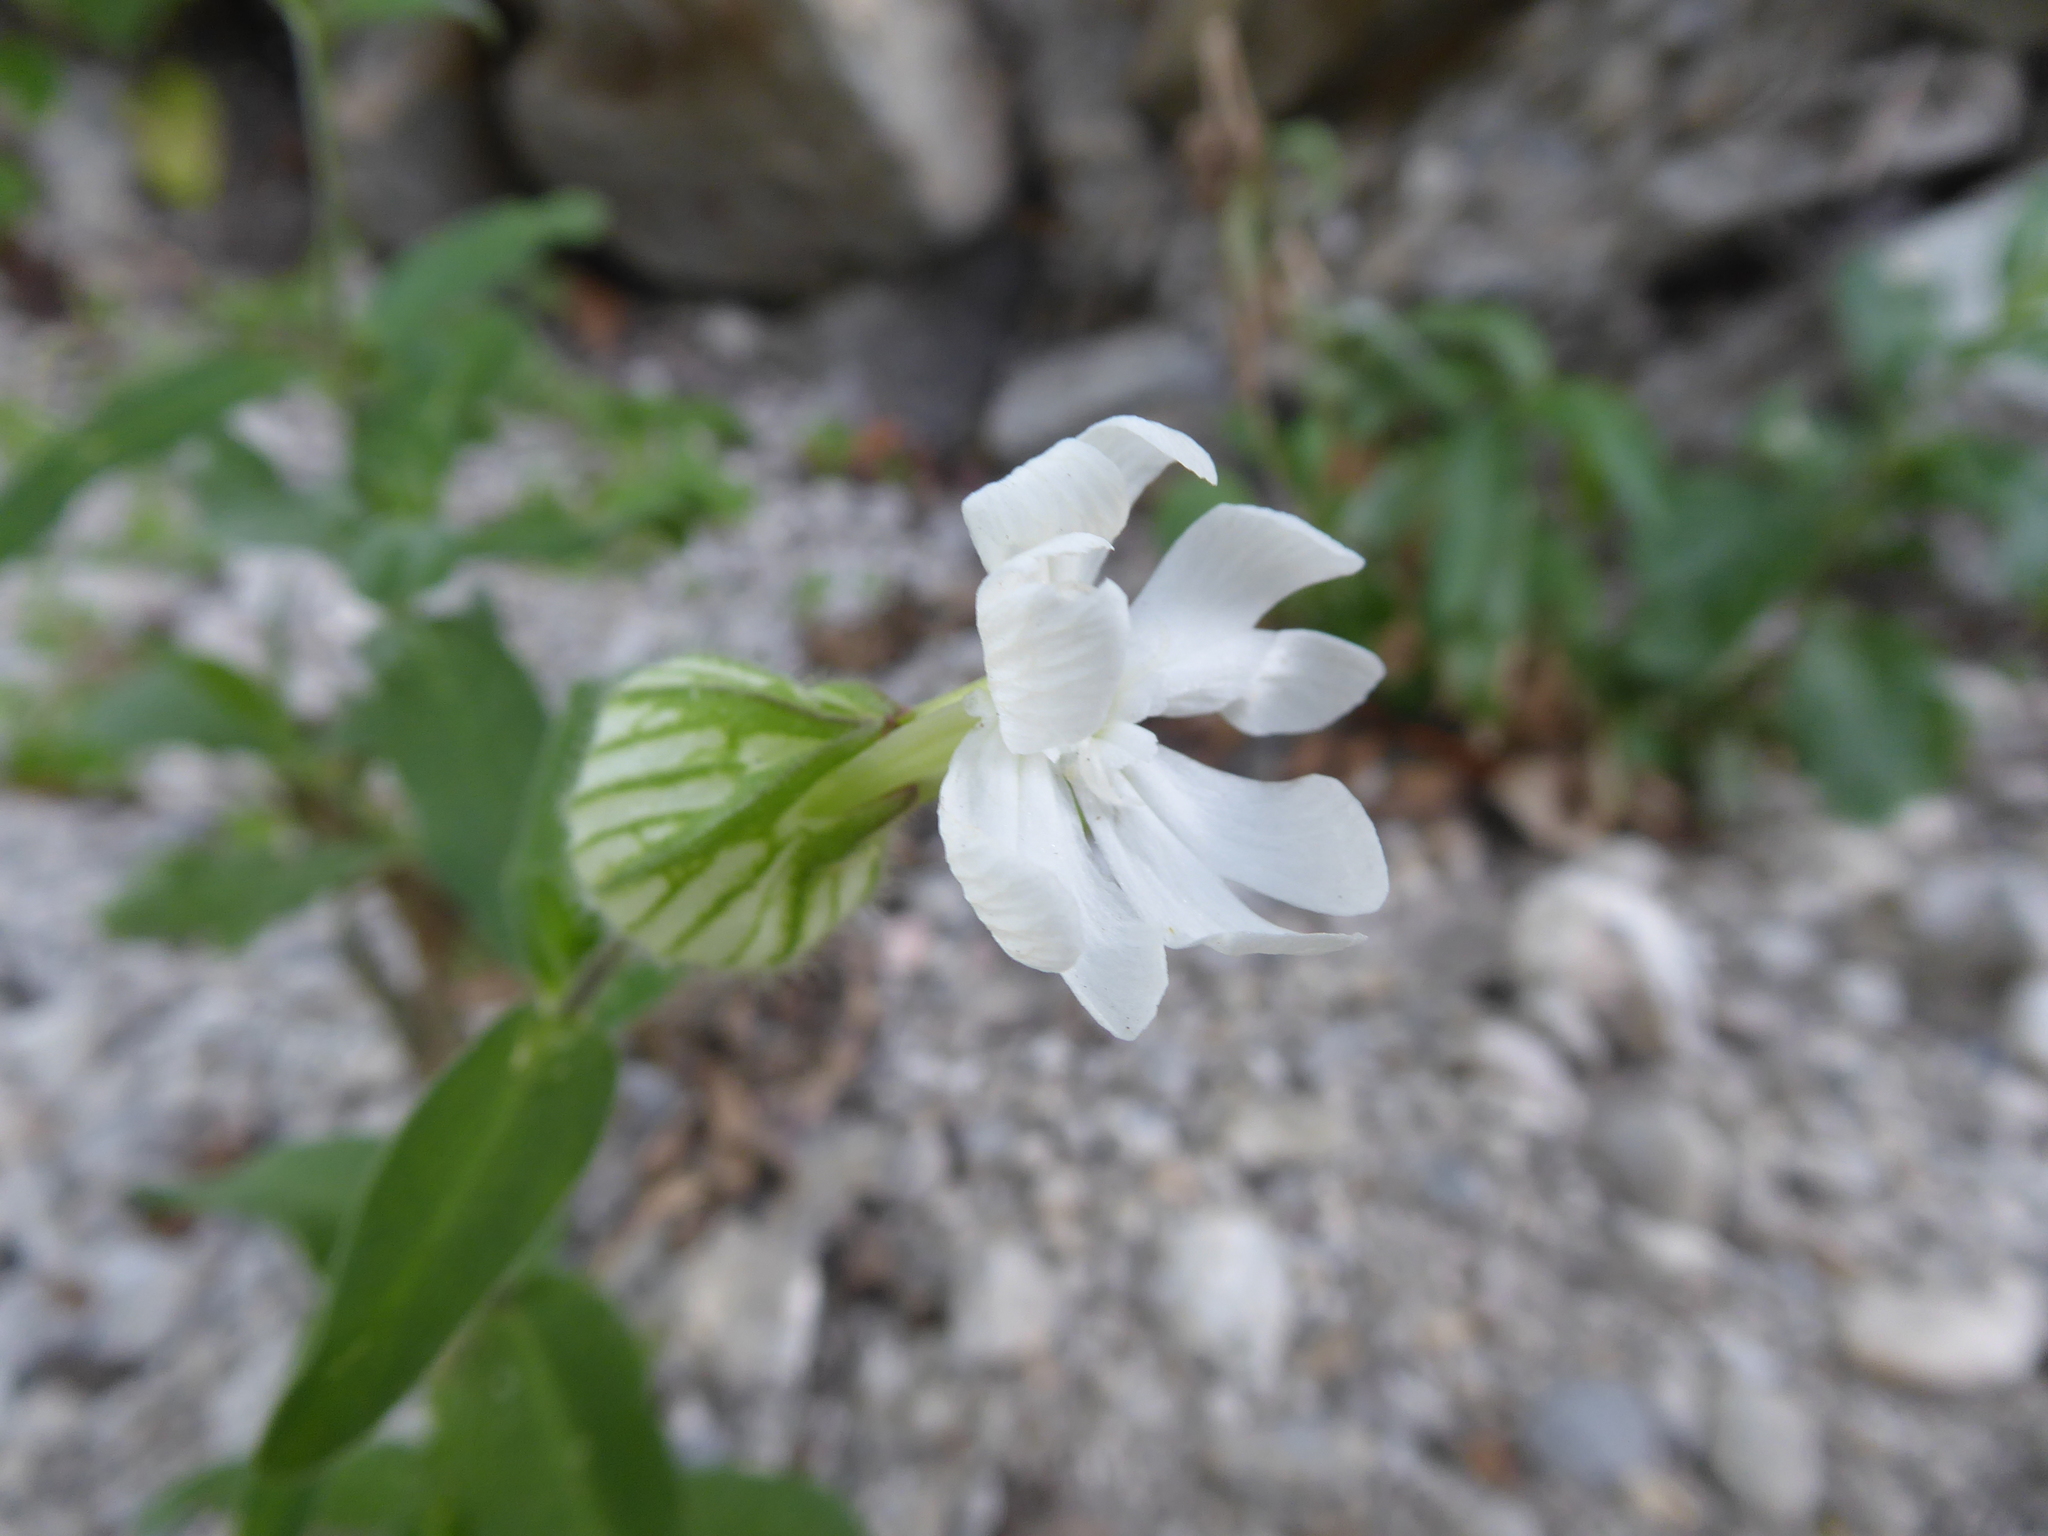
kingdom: Plantae
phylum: Tracheophyta
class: Magnoliopsida
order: Caryophyllales
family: Caryophyllaceae
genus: Silene
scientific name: Silene latifolia
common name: White campion
